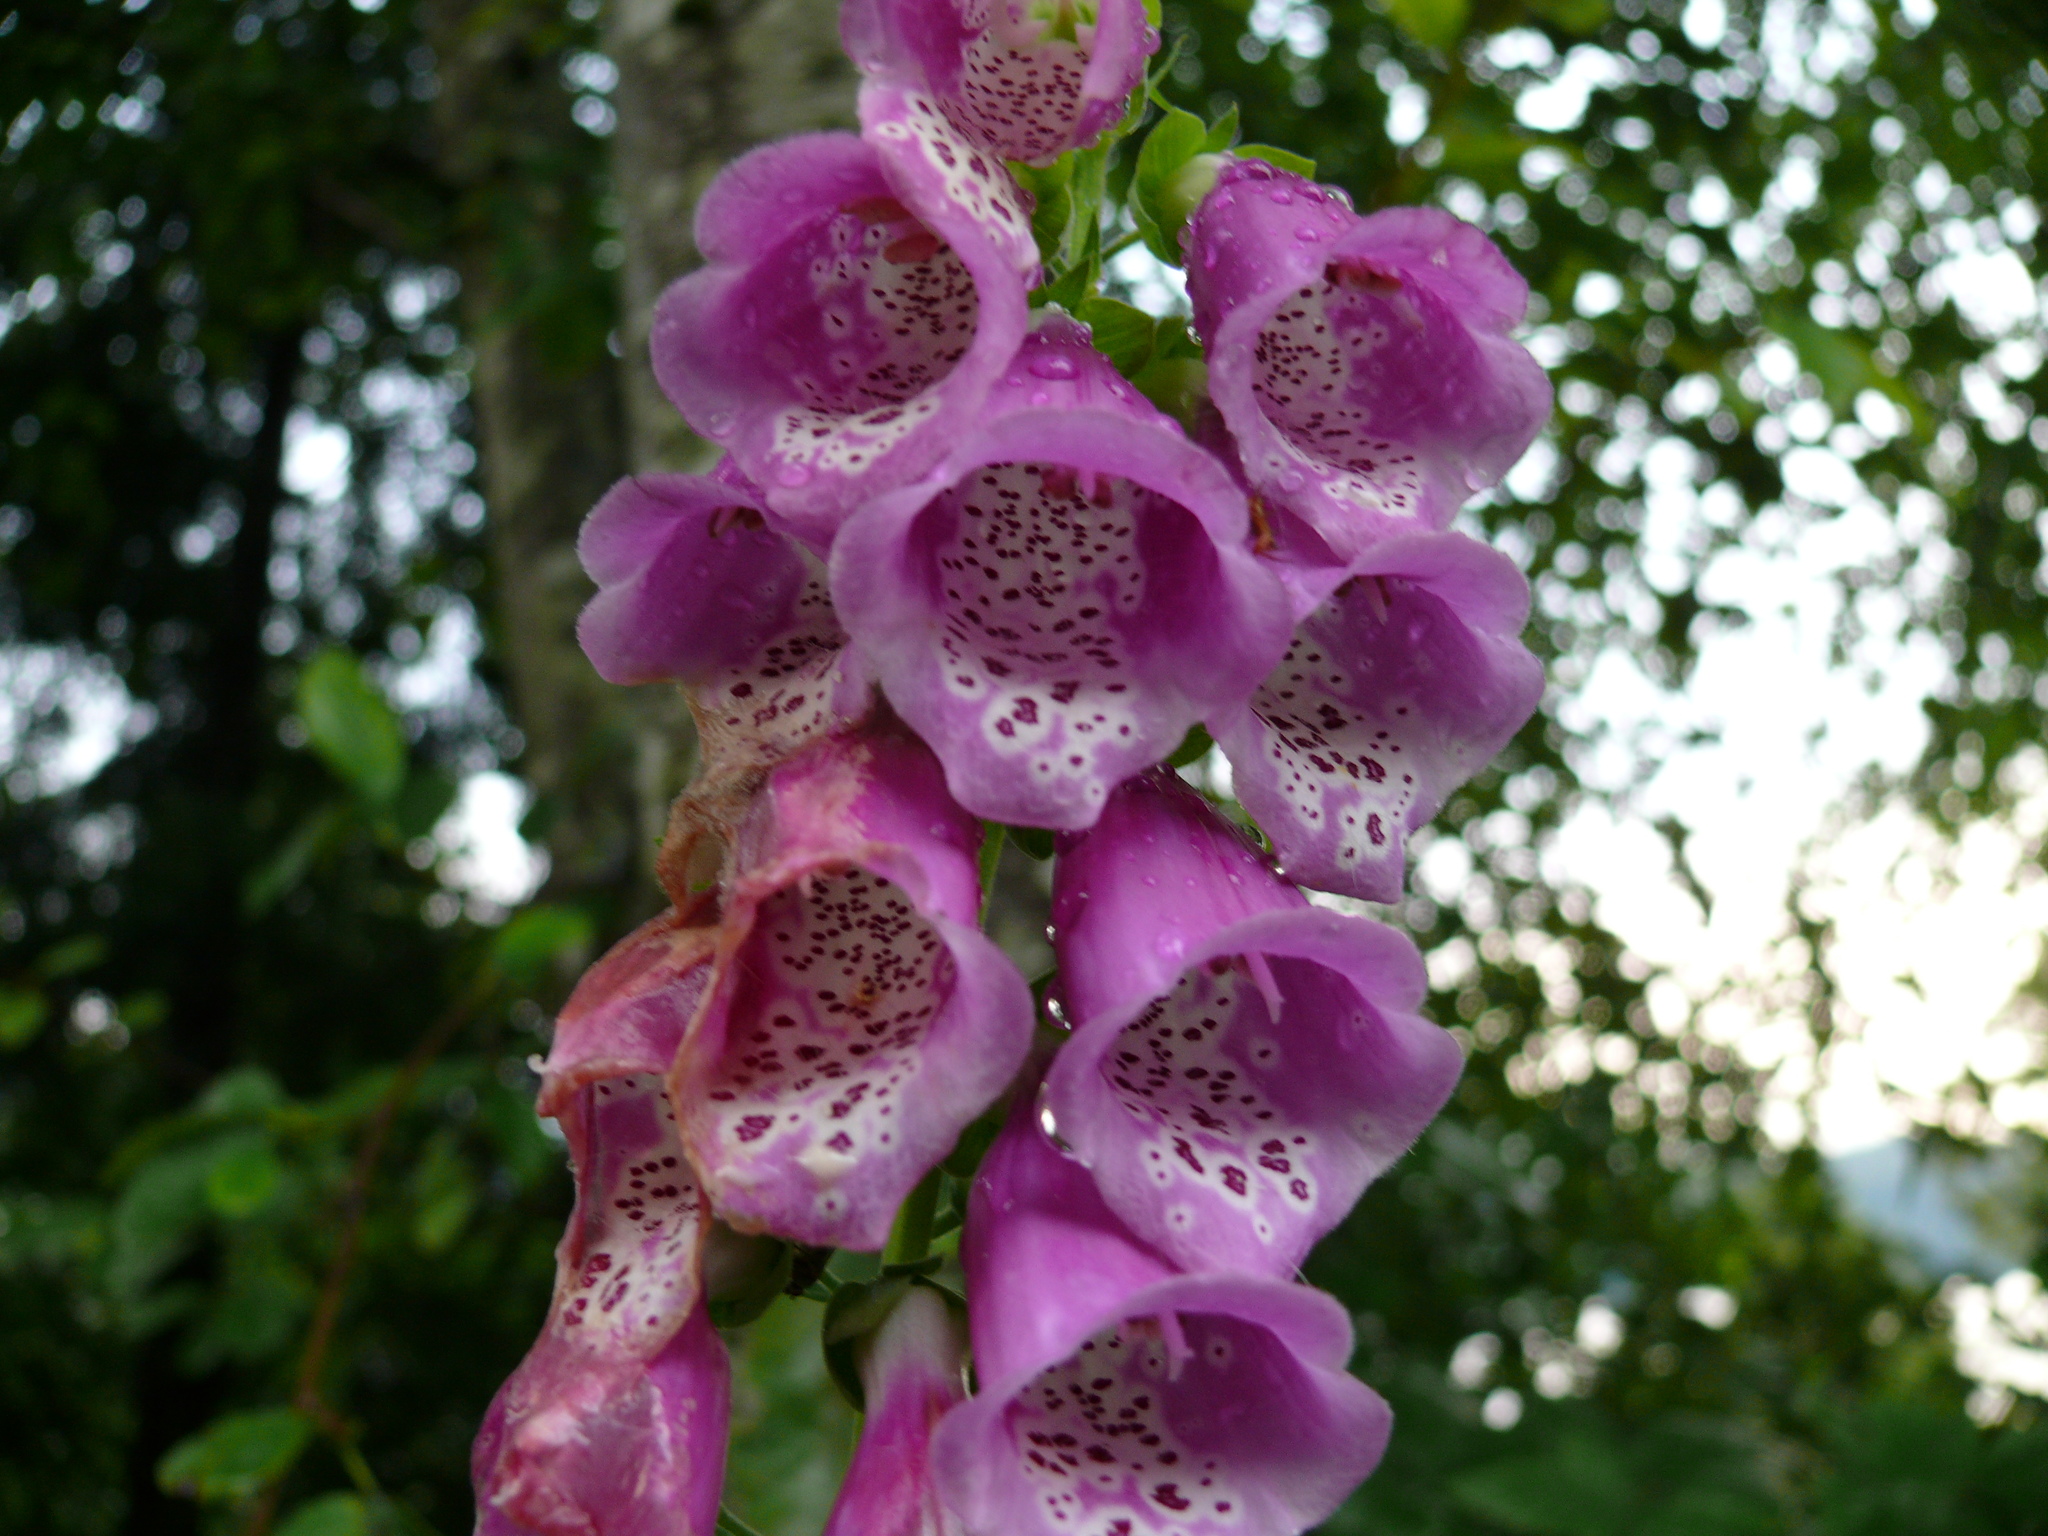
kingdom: Plantae
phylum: Tracheophyta
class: Magnoliopsida
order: Lamiales
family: Plantaginaceae
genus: Digitalis
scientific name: Digitalis purpurea
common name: Foxglove
